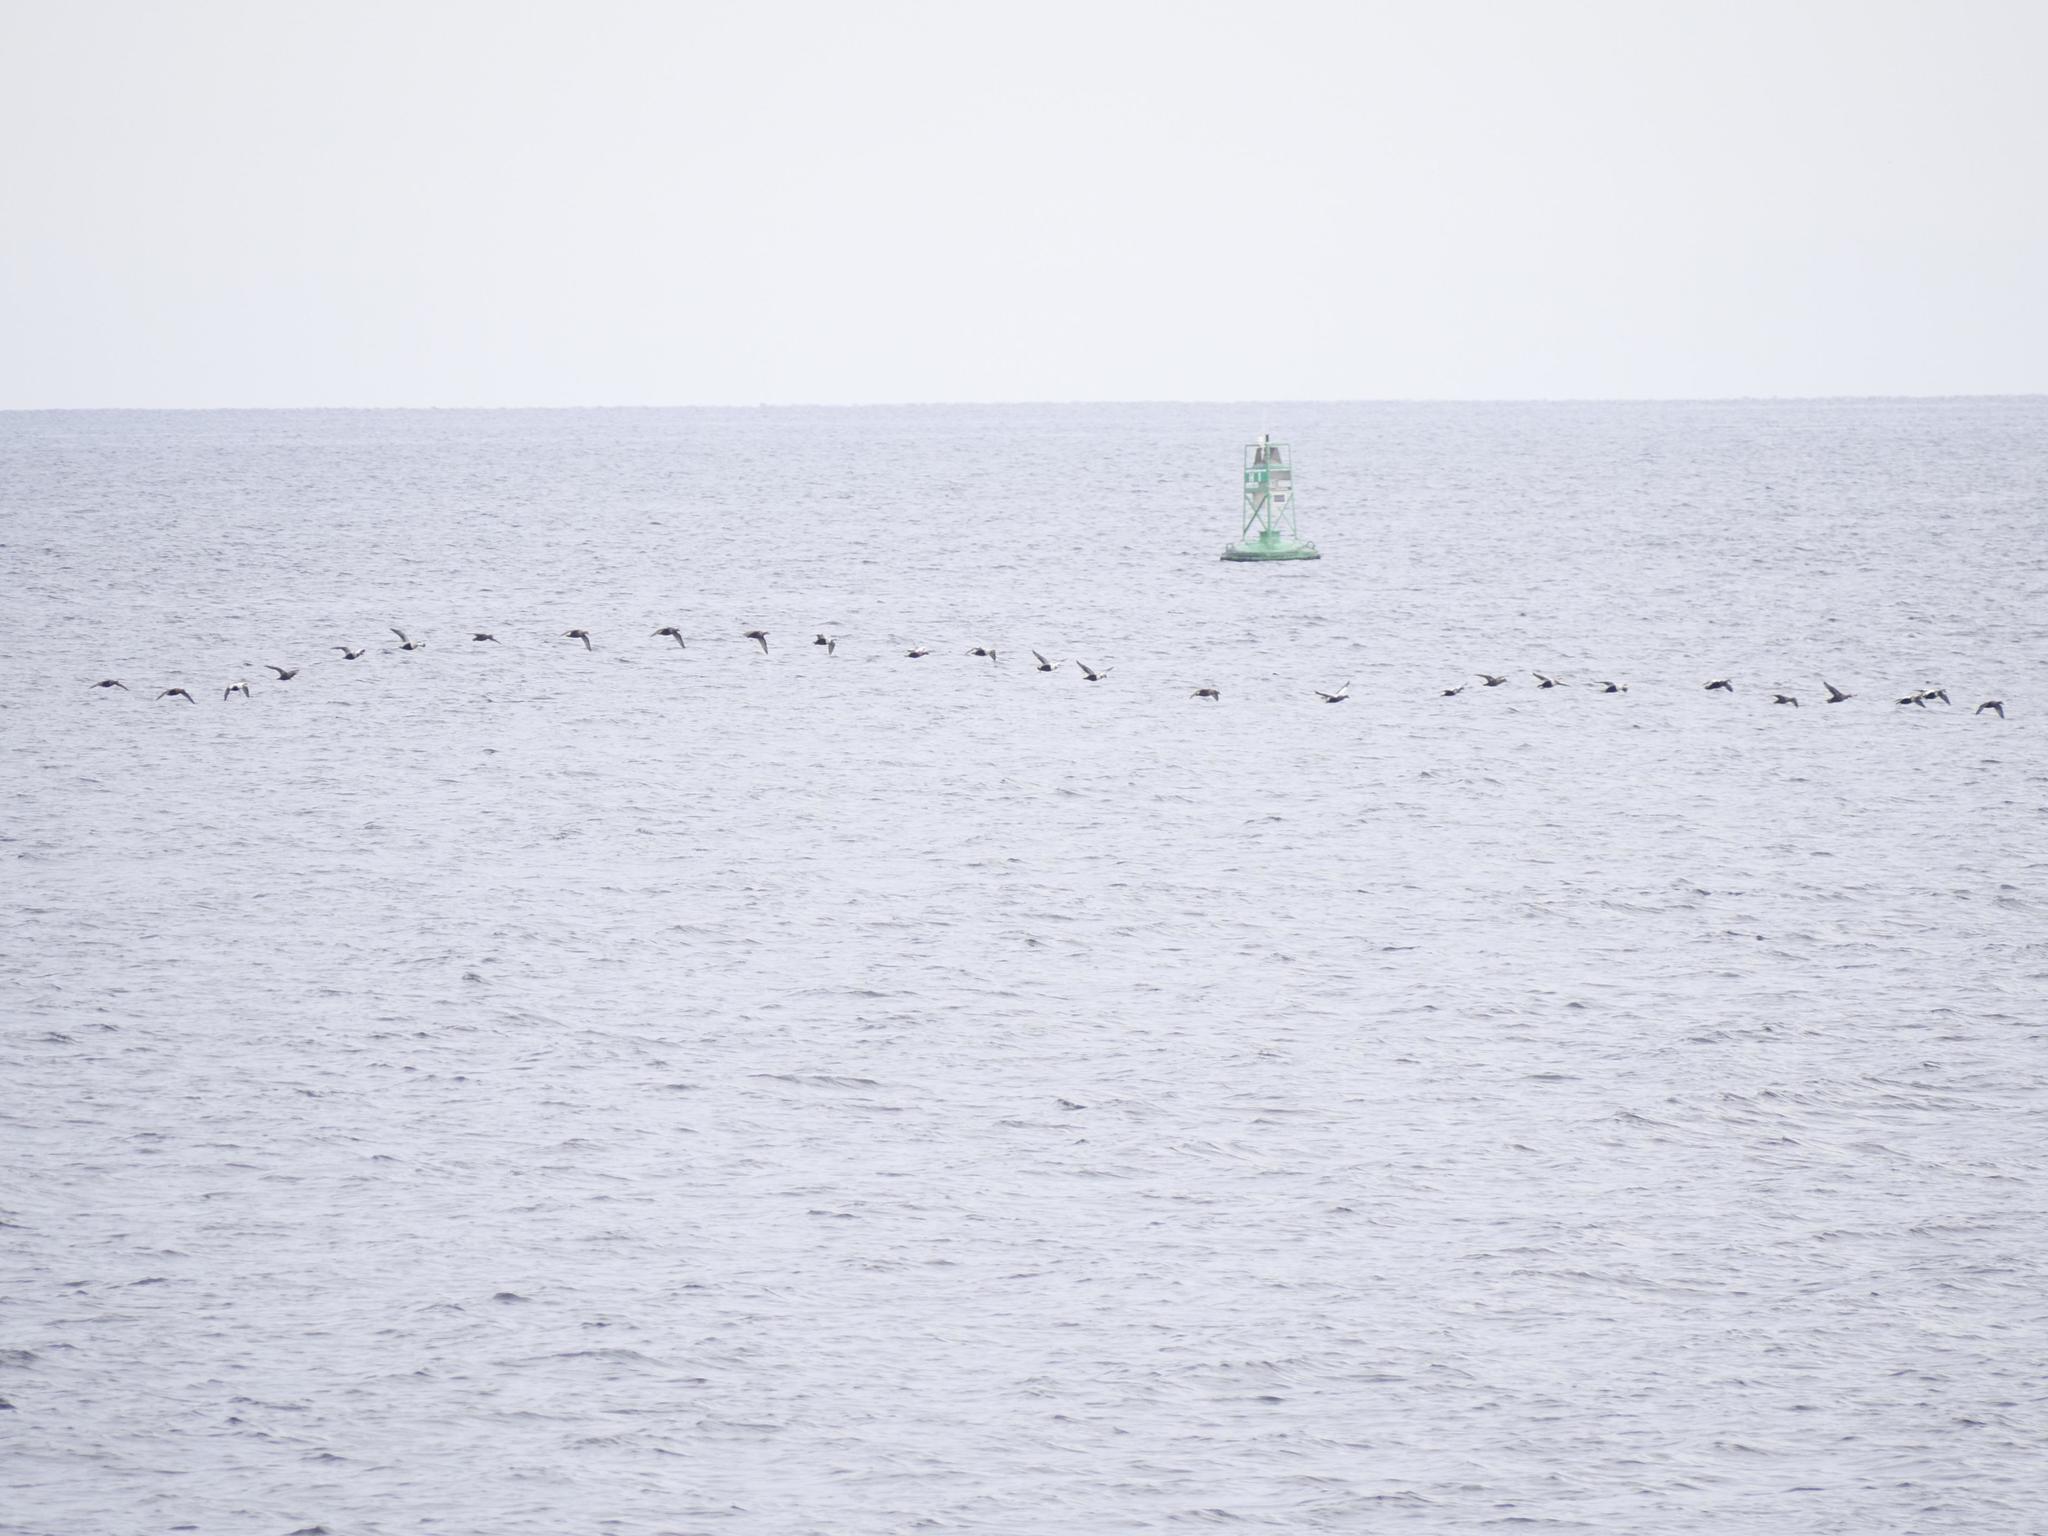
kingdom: Animalia
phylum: Chordata
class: Aves
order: Anseriformes
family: Anatidae
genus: Somateria
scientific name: Somateria mollissima
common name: Common eider
